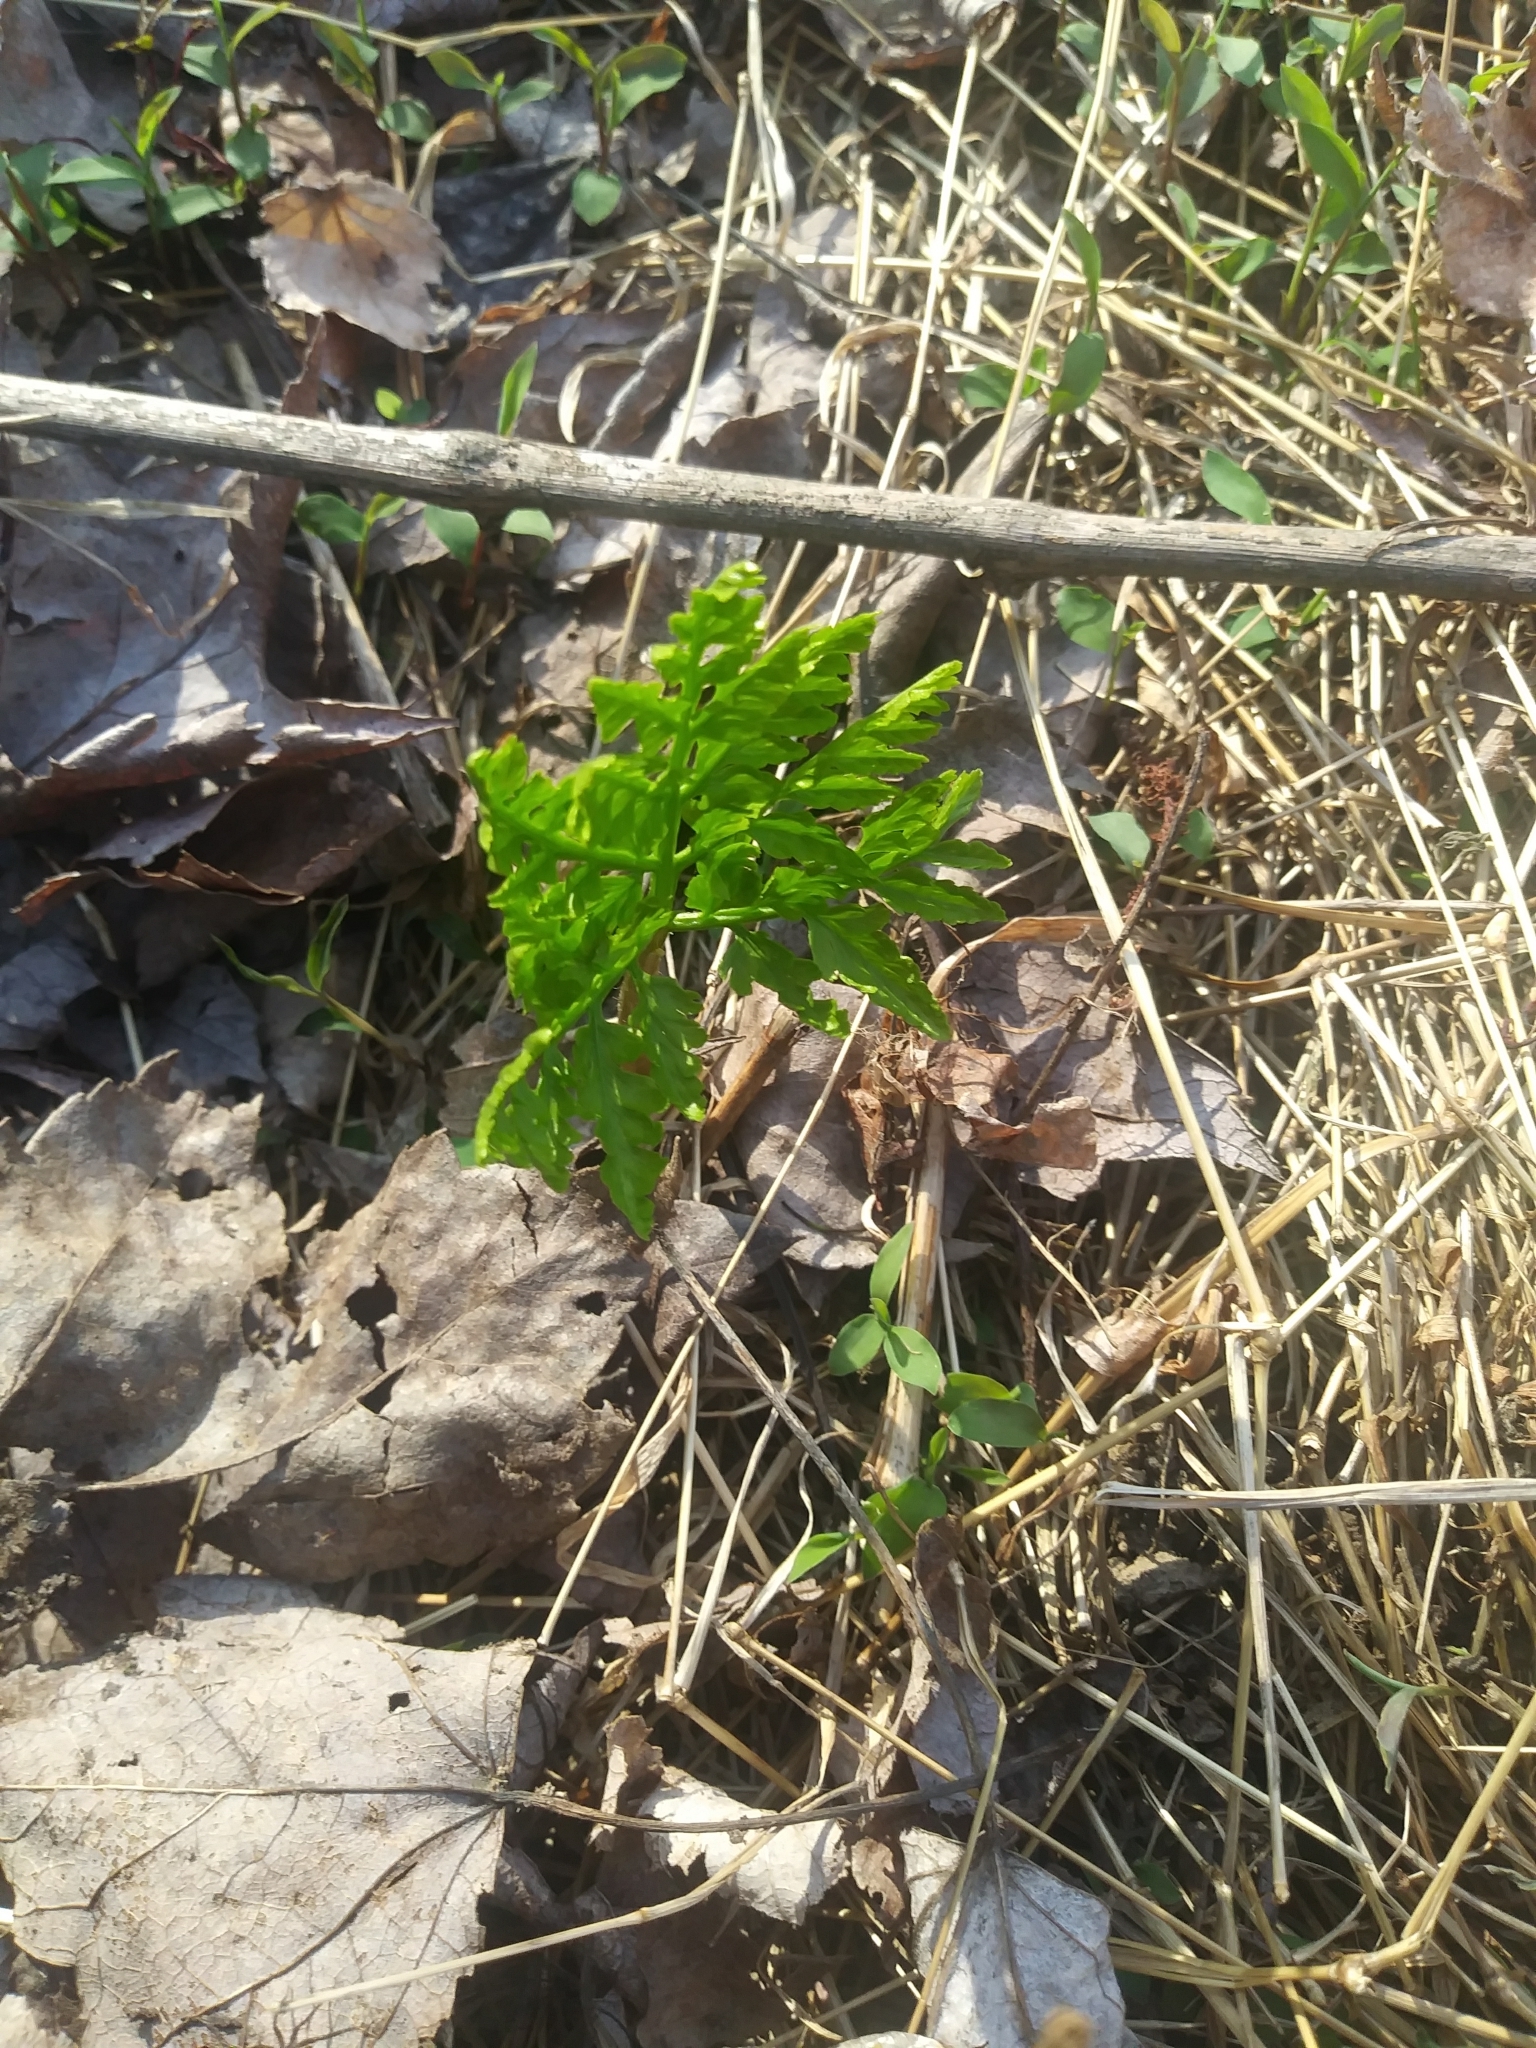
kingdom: Plantae
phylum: Tracheophyta
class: Polypodiopsida
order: Ophioglossales
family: Ophioglossaceae
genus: Botrypus
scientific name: Botrypus virginianus
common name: Common grapefern
